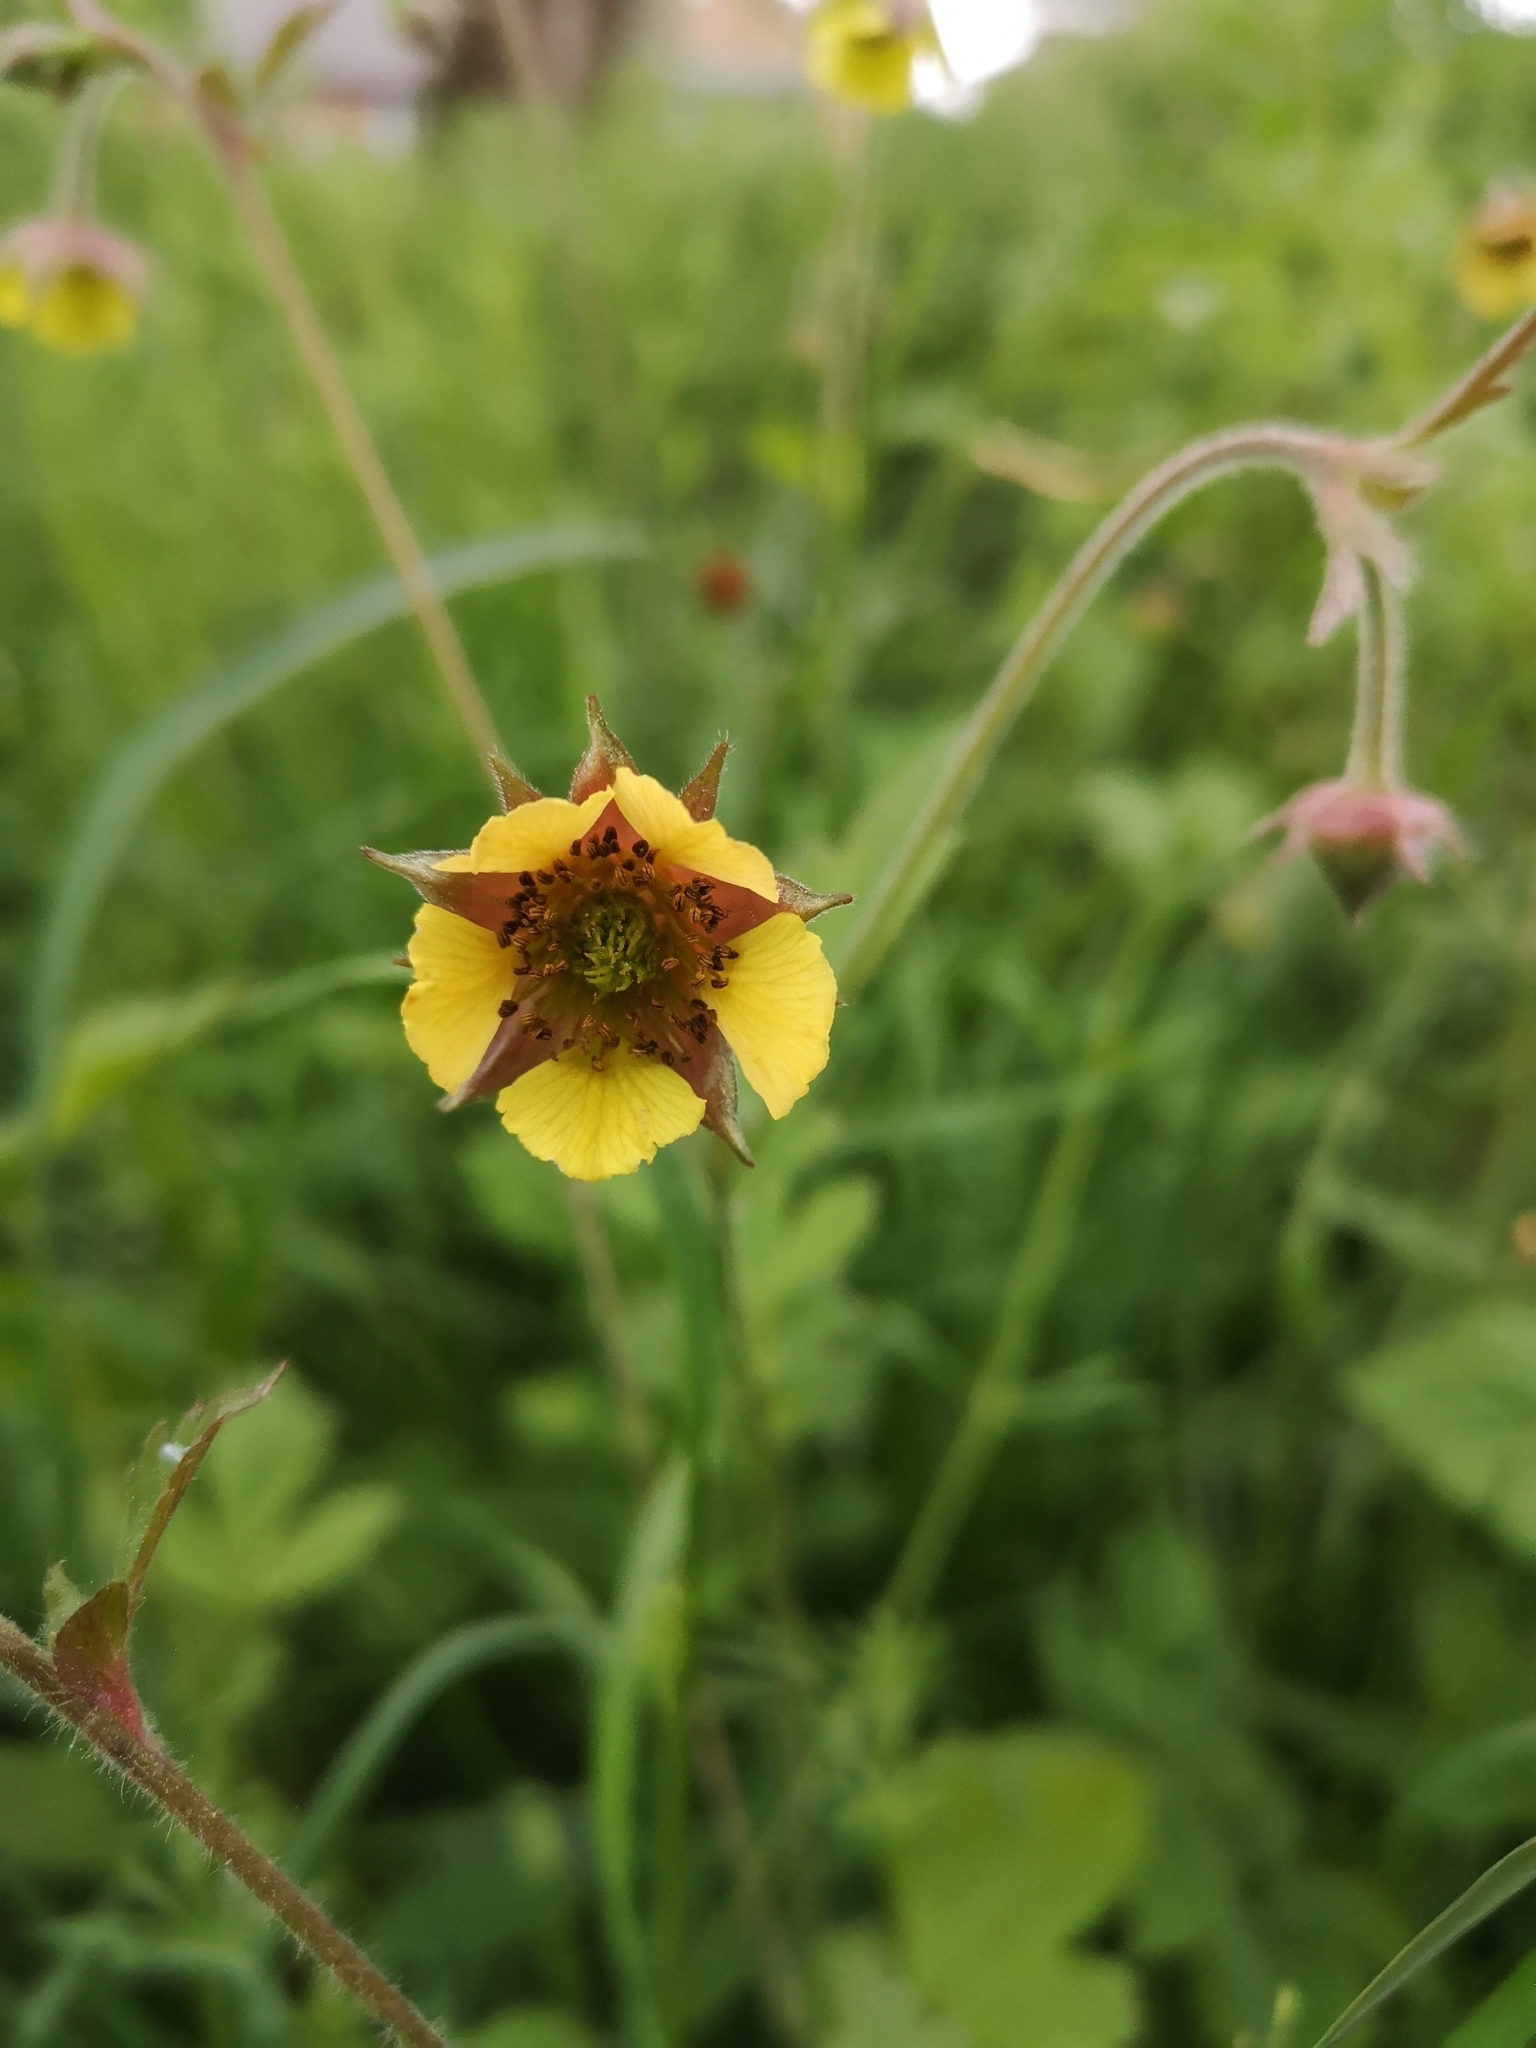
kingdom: Plantae
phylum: Tracheophyta
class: Magnoliopsida
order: Rosales
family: Rosaceae
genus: Geum
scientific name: Geum intermedium
